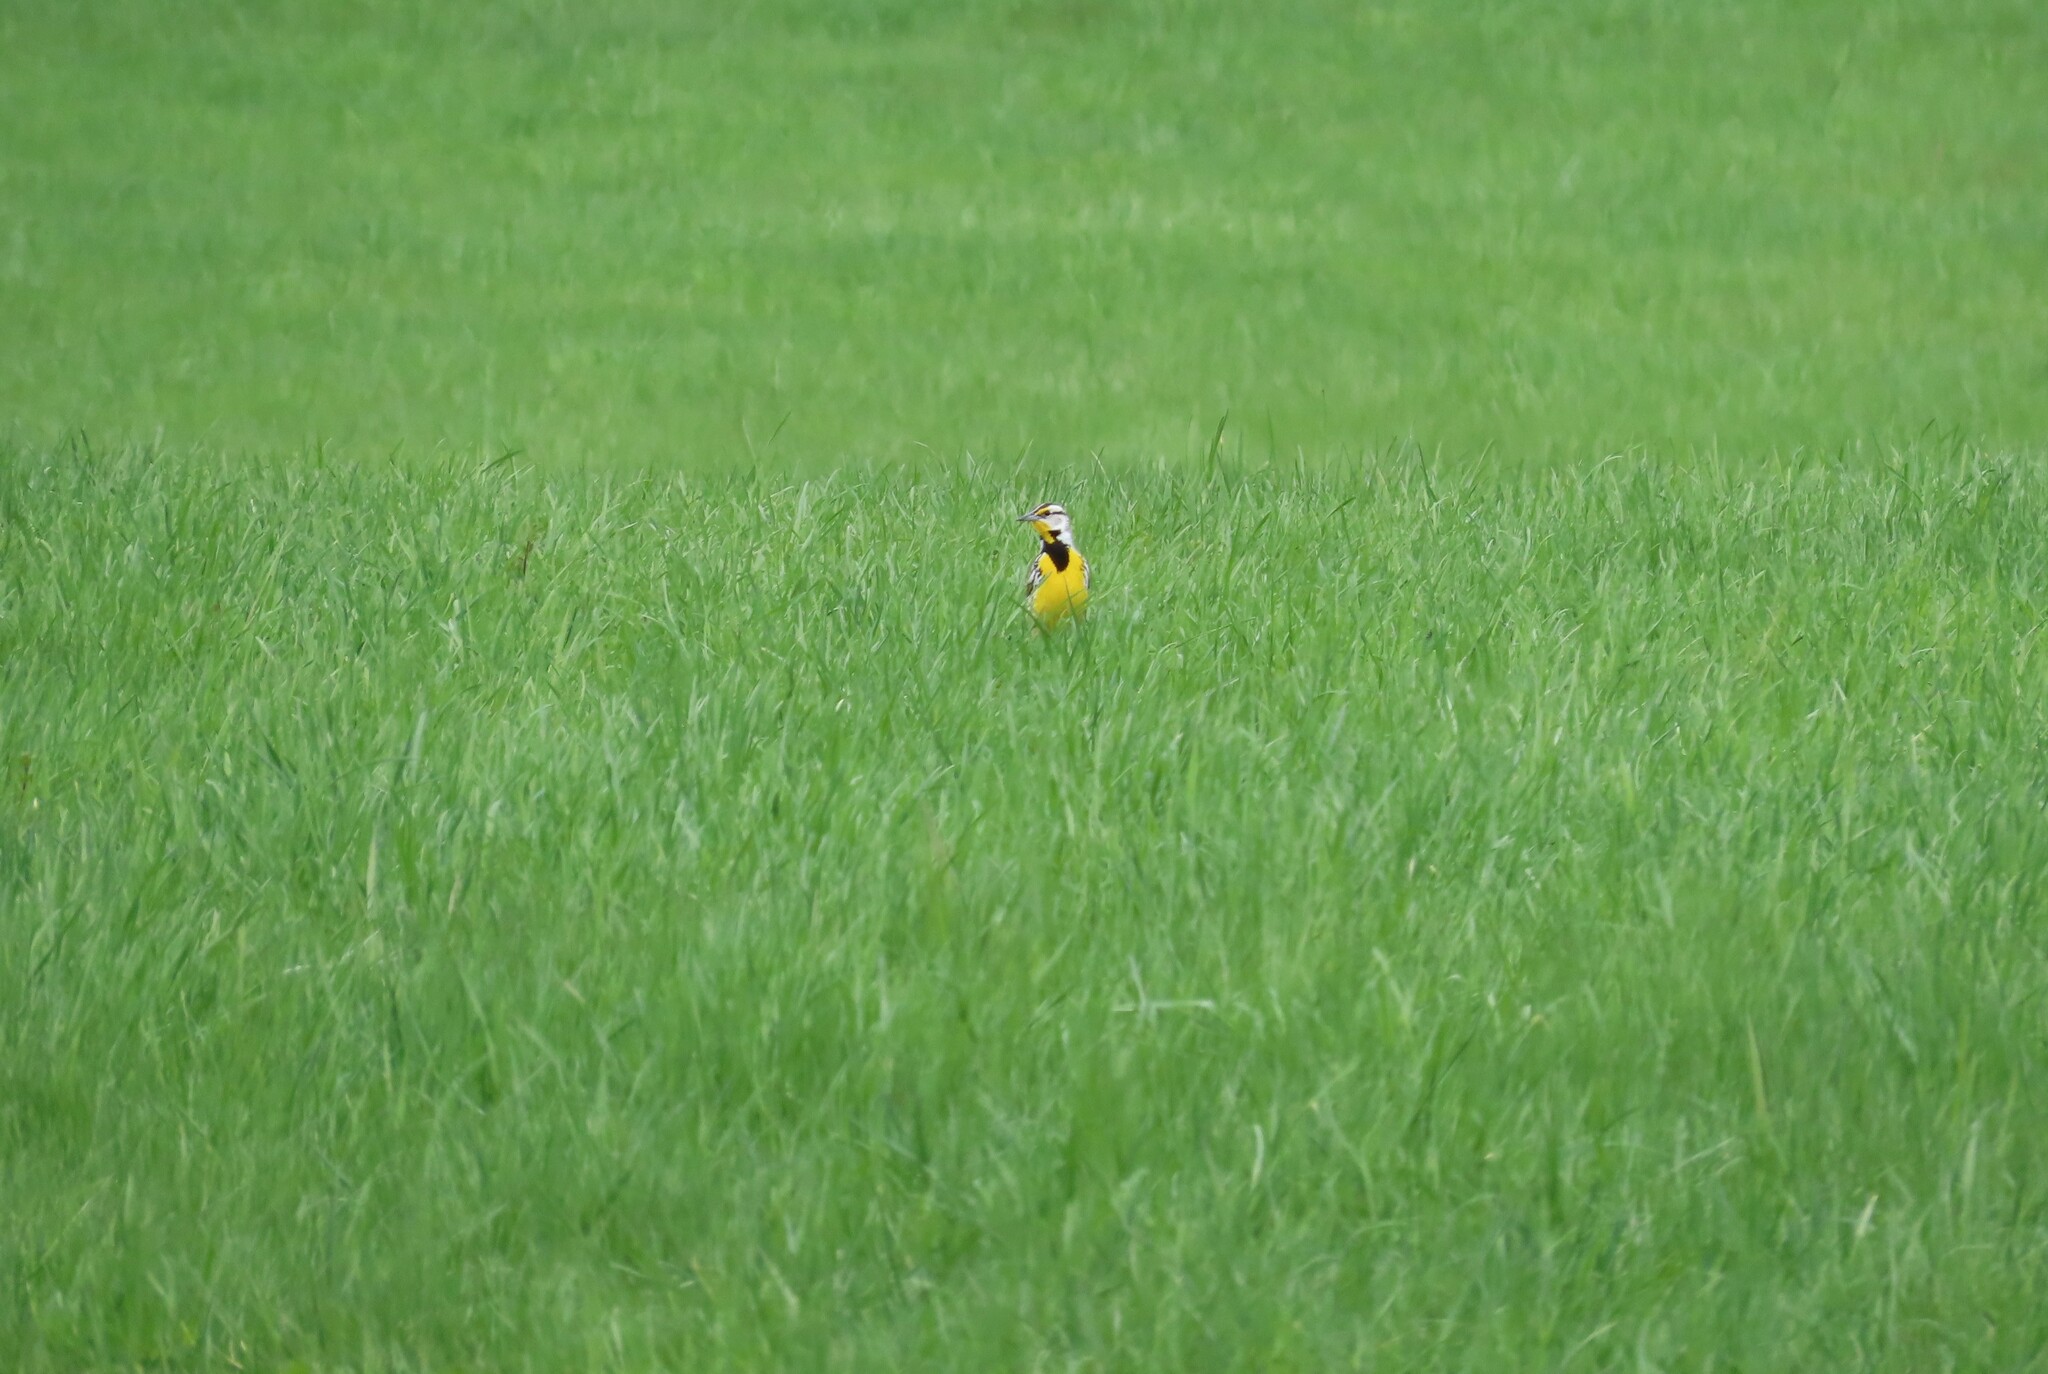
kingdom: Animalia
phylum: Chordata
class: Aves
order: Passeriformes
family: Icteridae
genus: Sturnella
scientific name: Sturnella magna
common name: Eastern meadowlark
